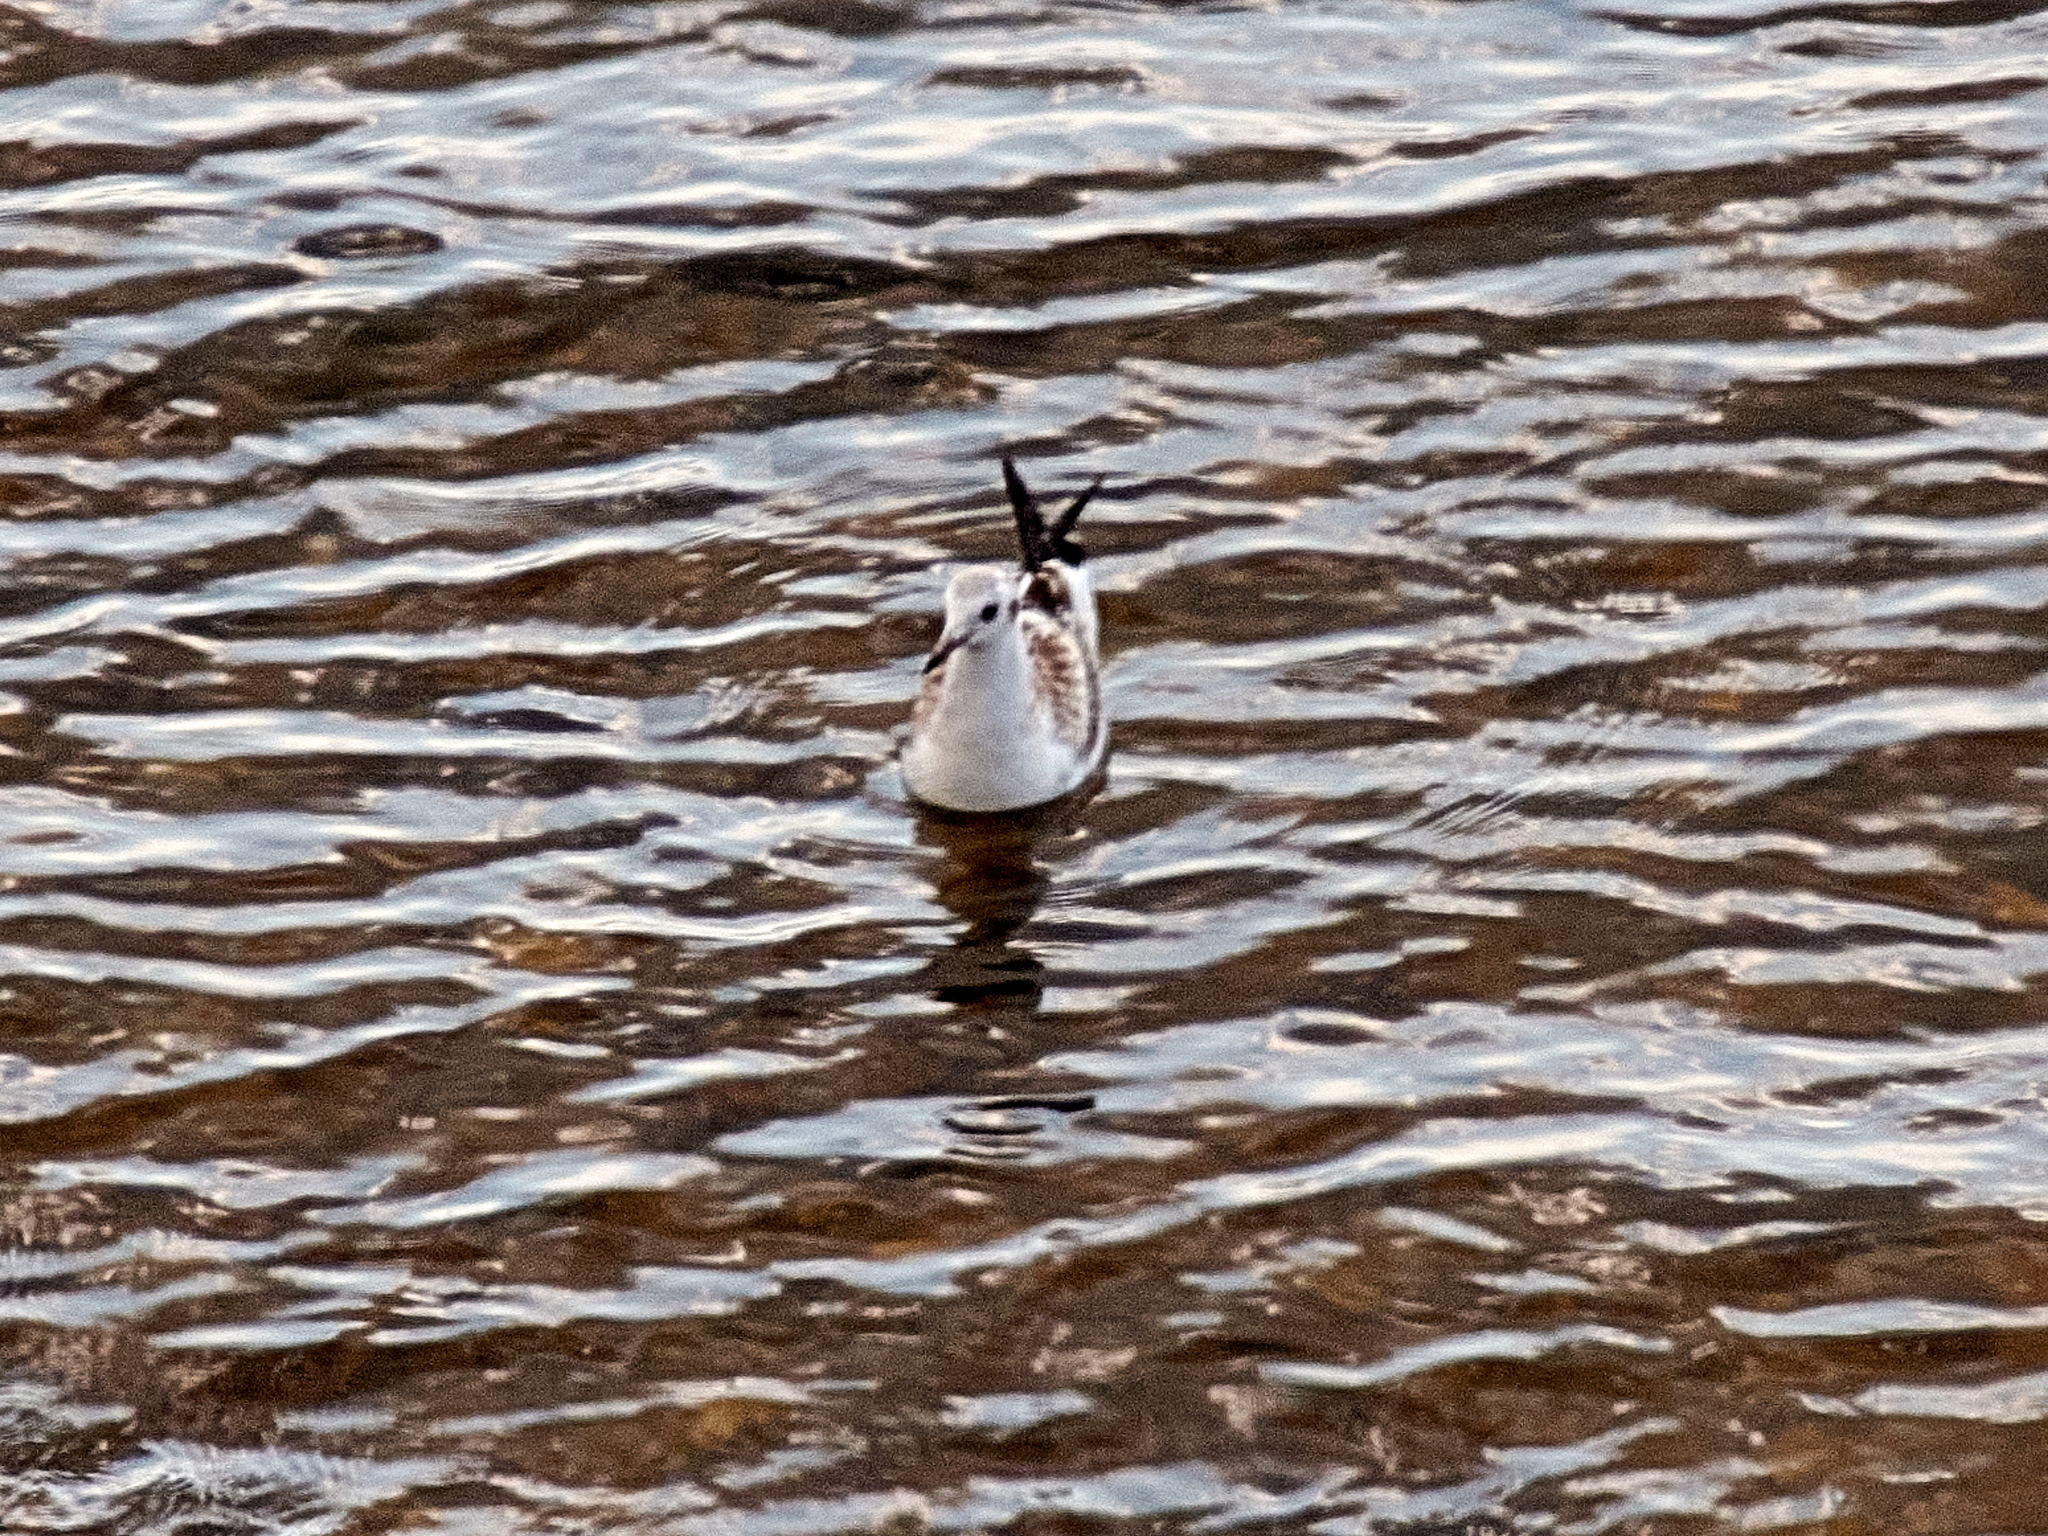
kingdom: Animalia
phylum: Chordata
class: Aves
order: Charadriiformes
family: Laridae
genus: Chroicocephalus
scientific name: Chroicocephalus ridibundus
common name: Black-headed gull
